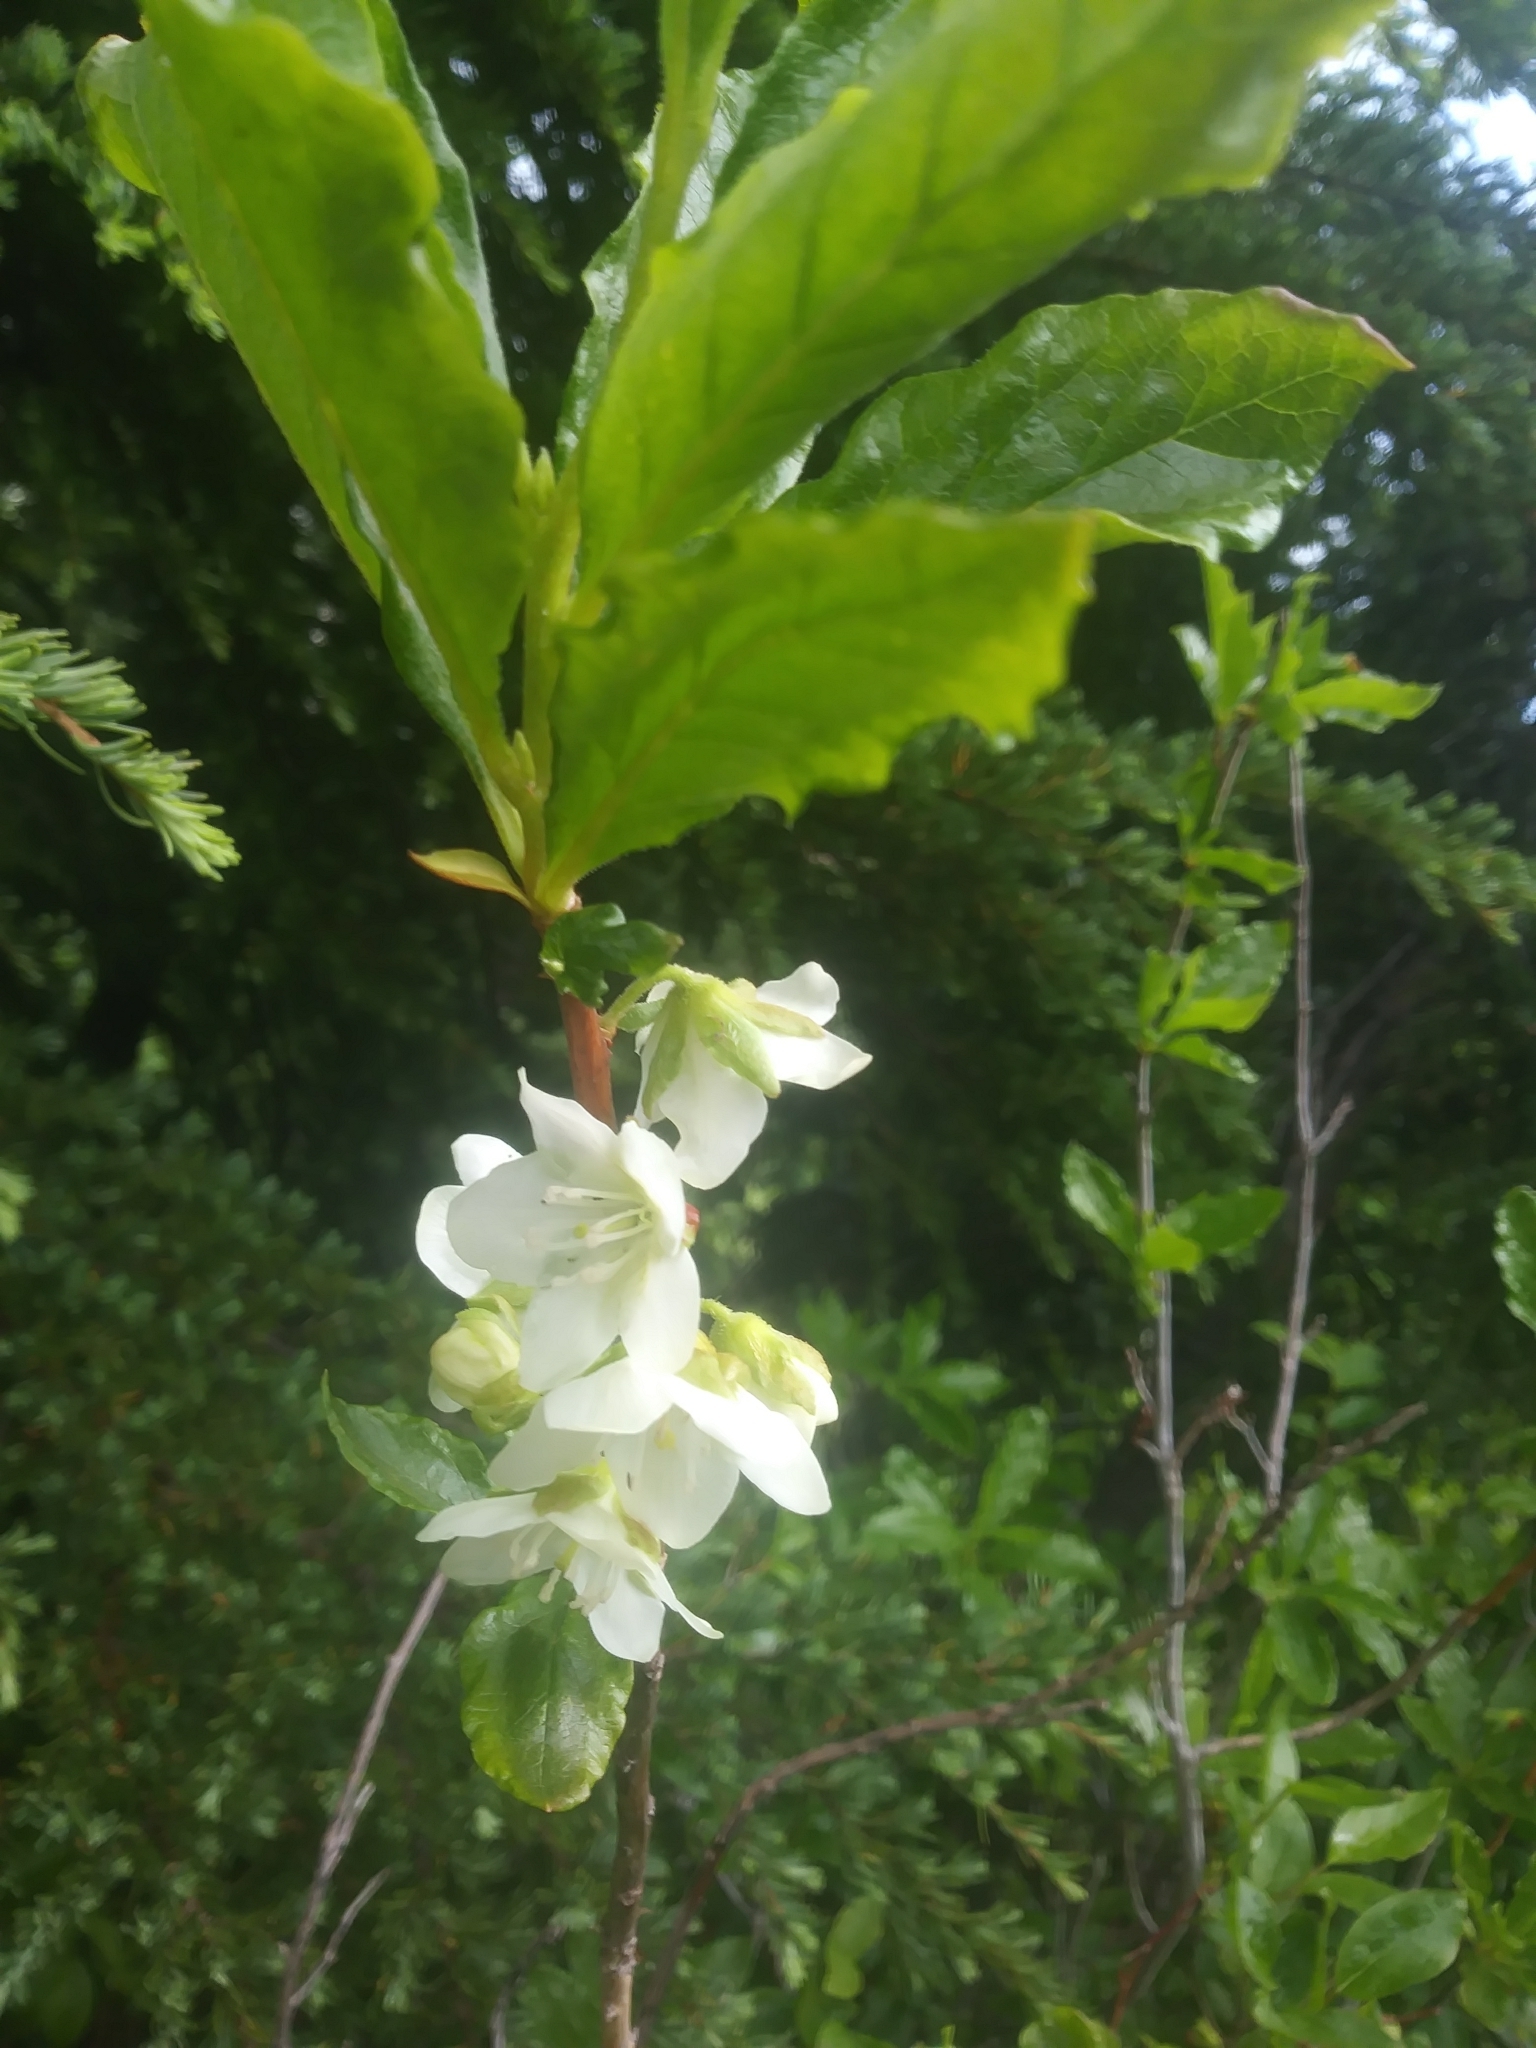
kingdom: Plantae
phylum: Tracheophyta
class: Magnoliopsida
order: Ericales
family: Ericaceae
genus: Rhododendron
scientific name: Rhododendron albiflorum
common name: White rhododendron
